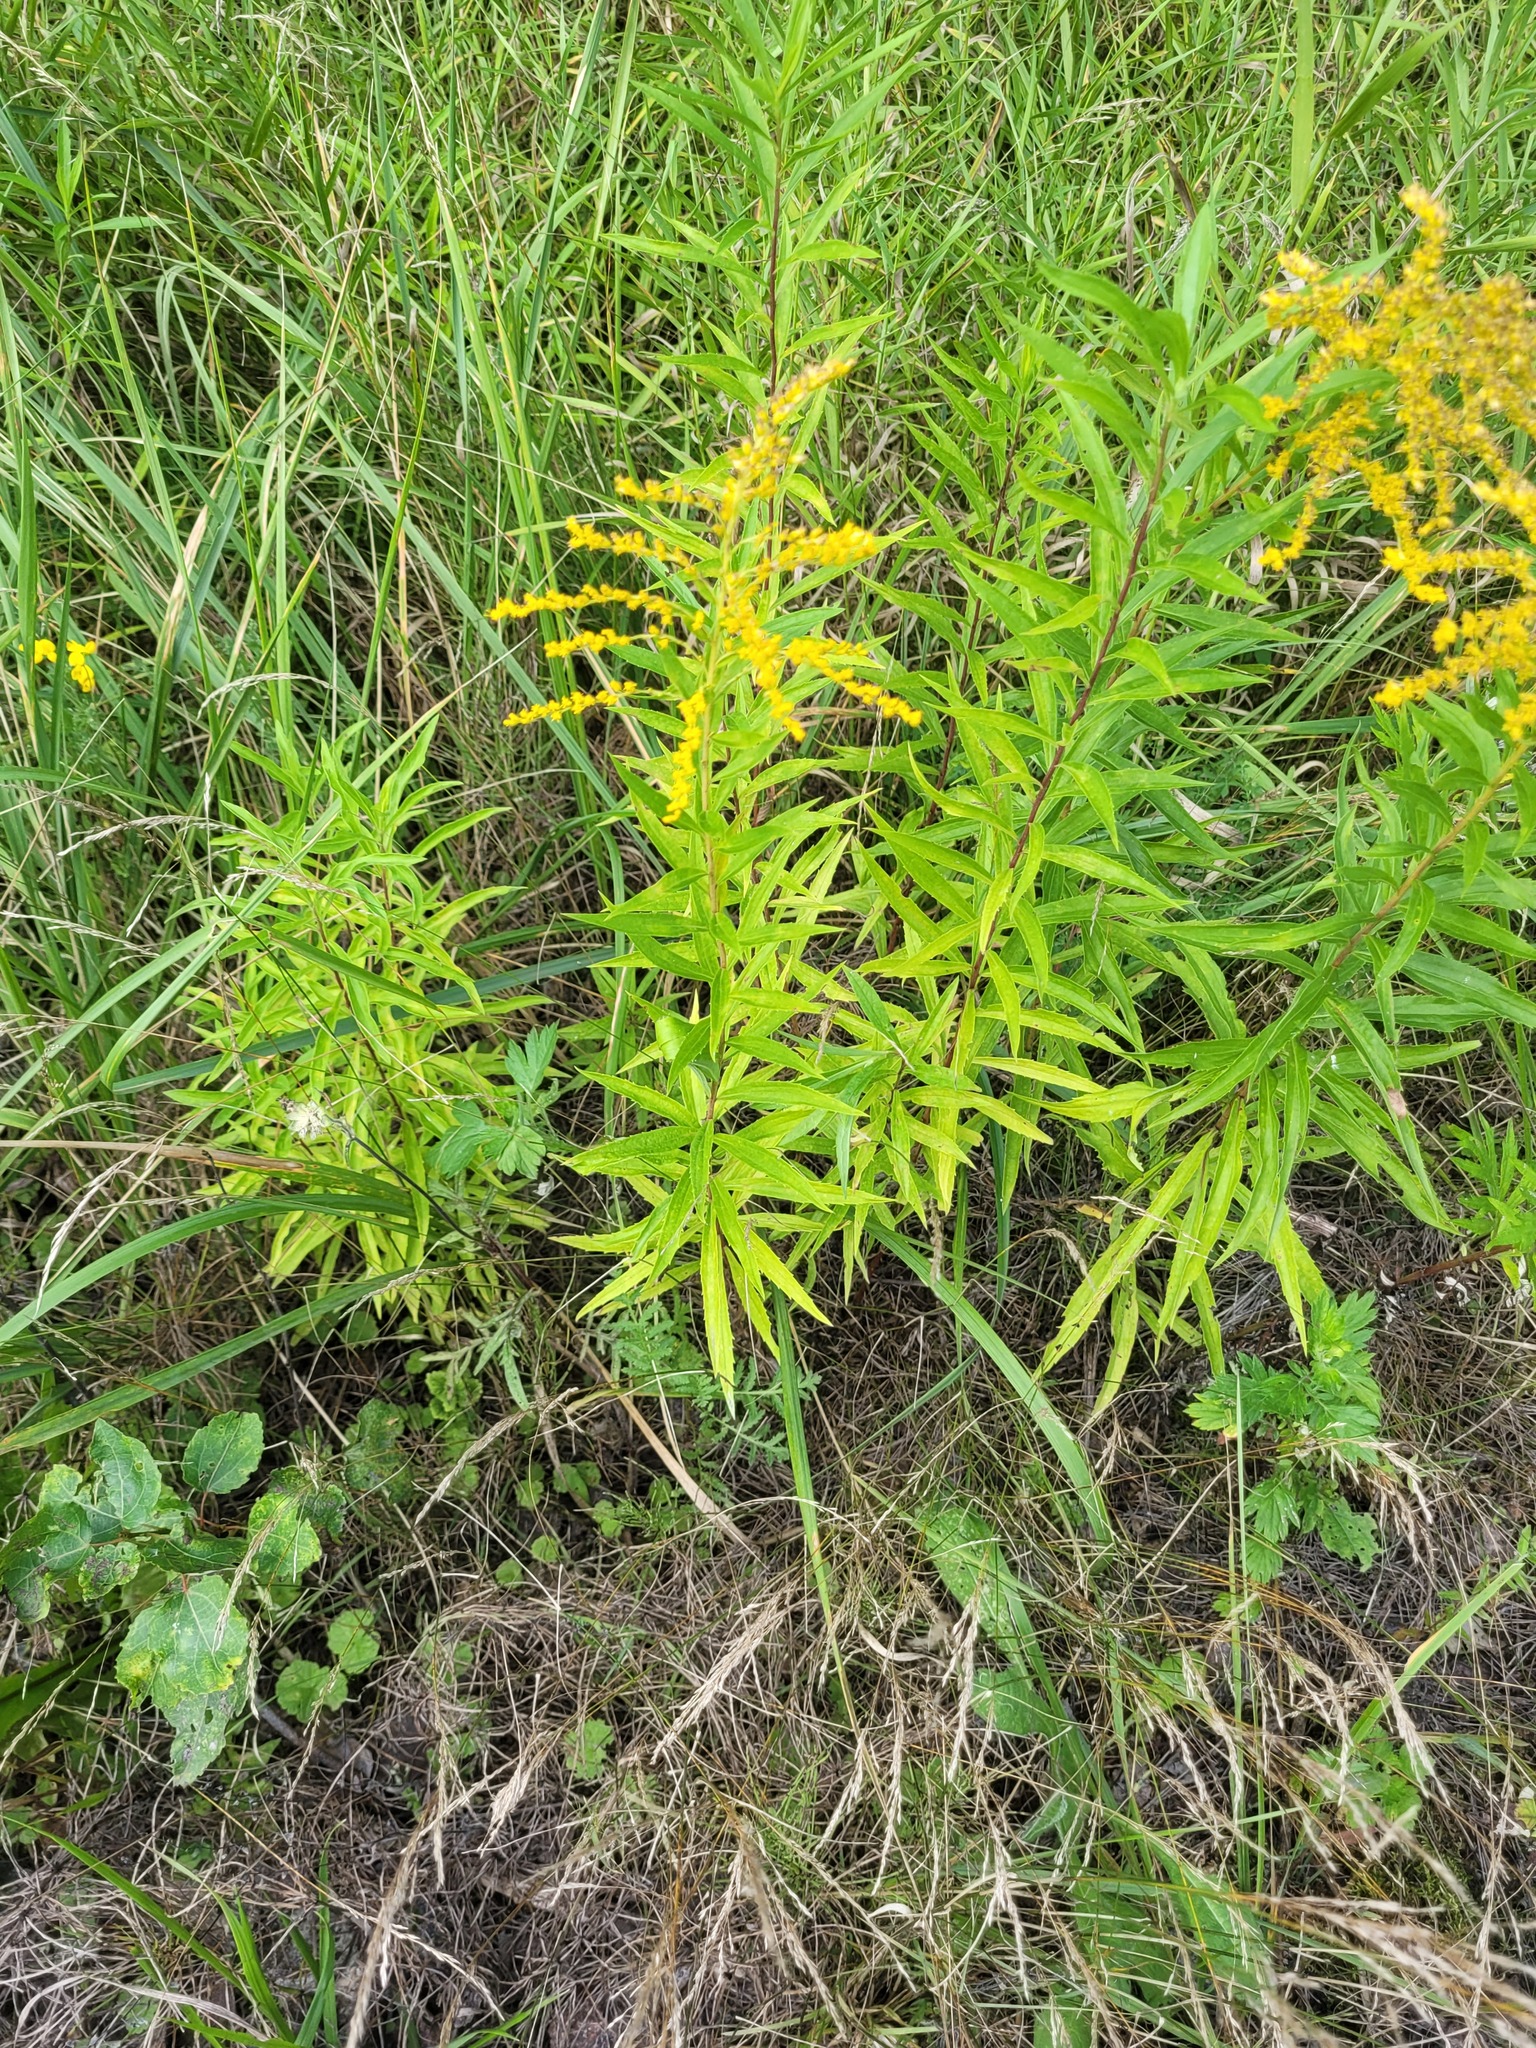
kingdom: Plantae
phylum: Tracheophyta
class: Magnoliopsida
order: Asterales
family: Asteraceae
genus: Solidago
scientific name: Solidago canadensis
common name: Canada goldenrod
